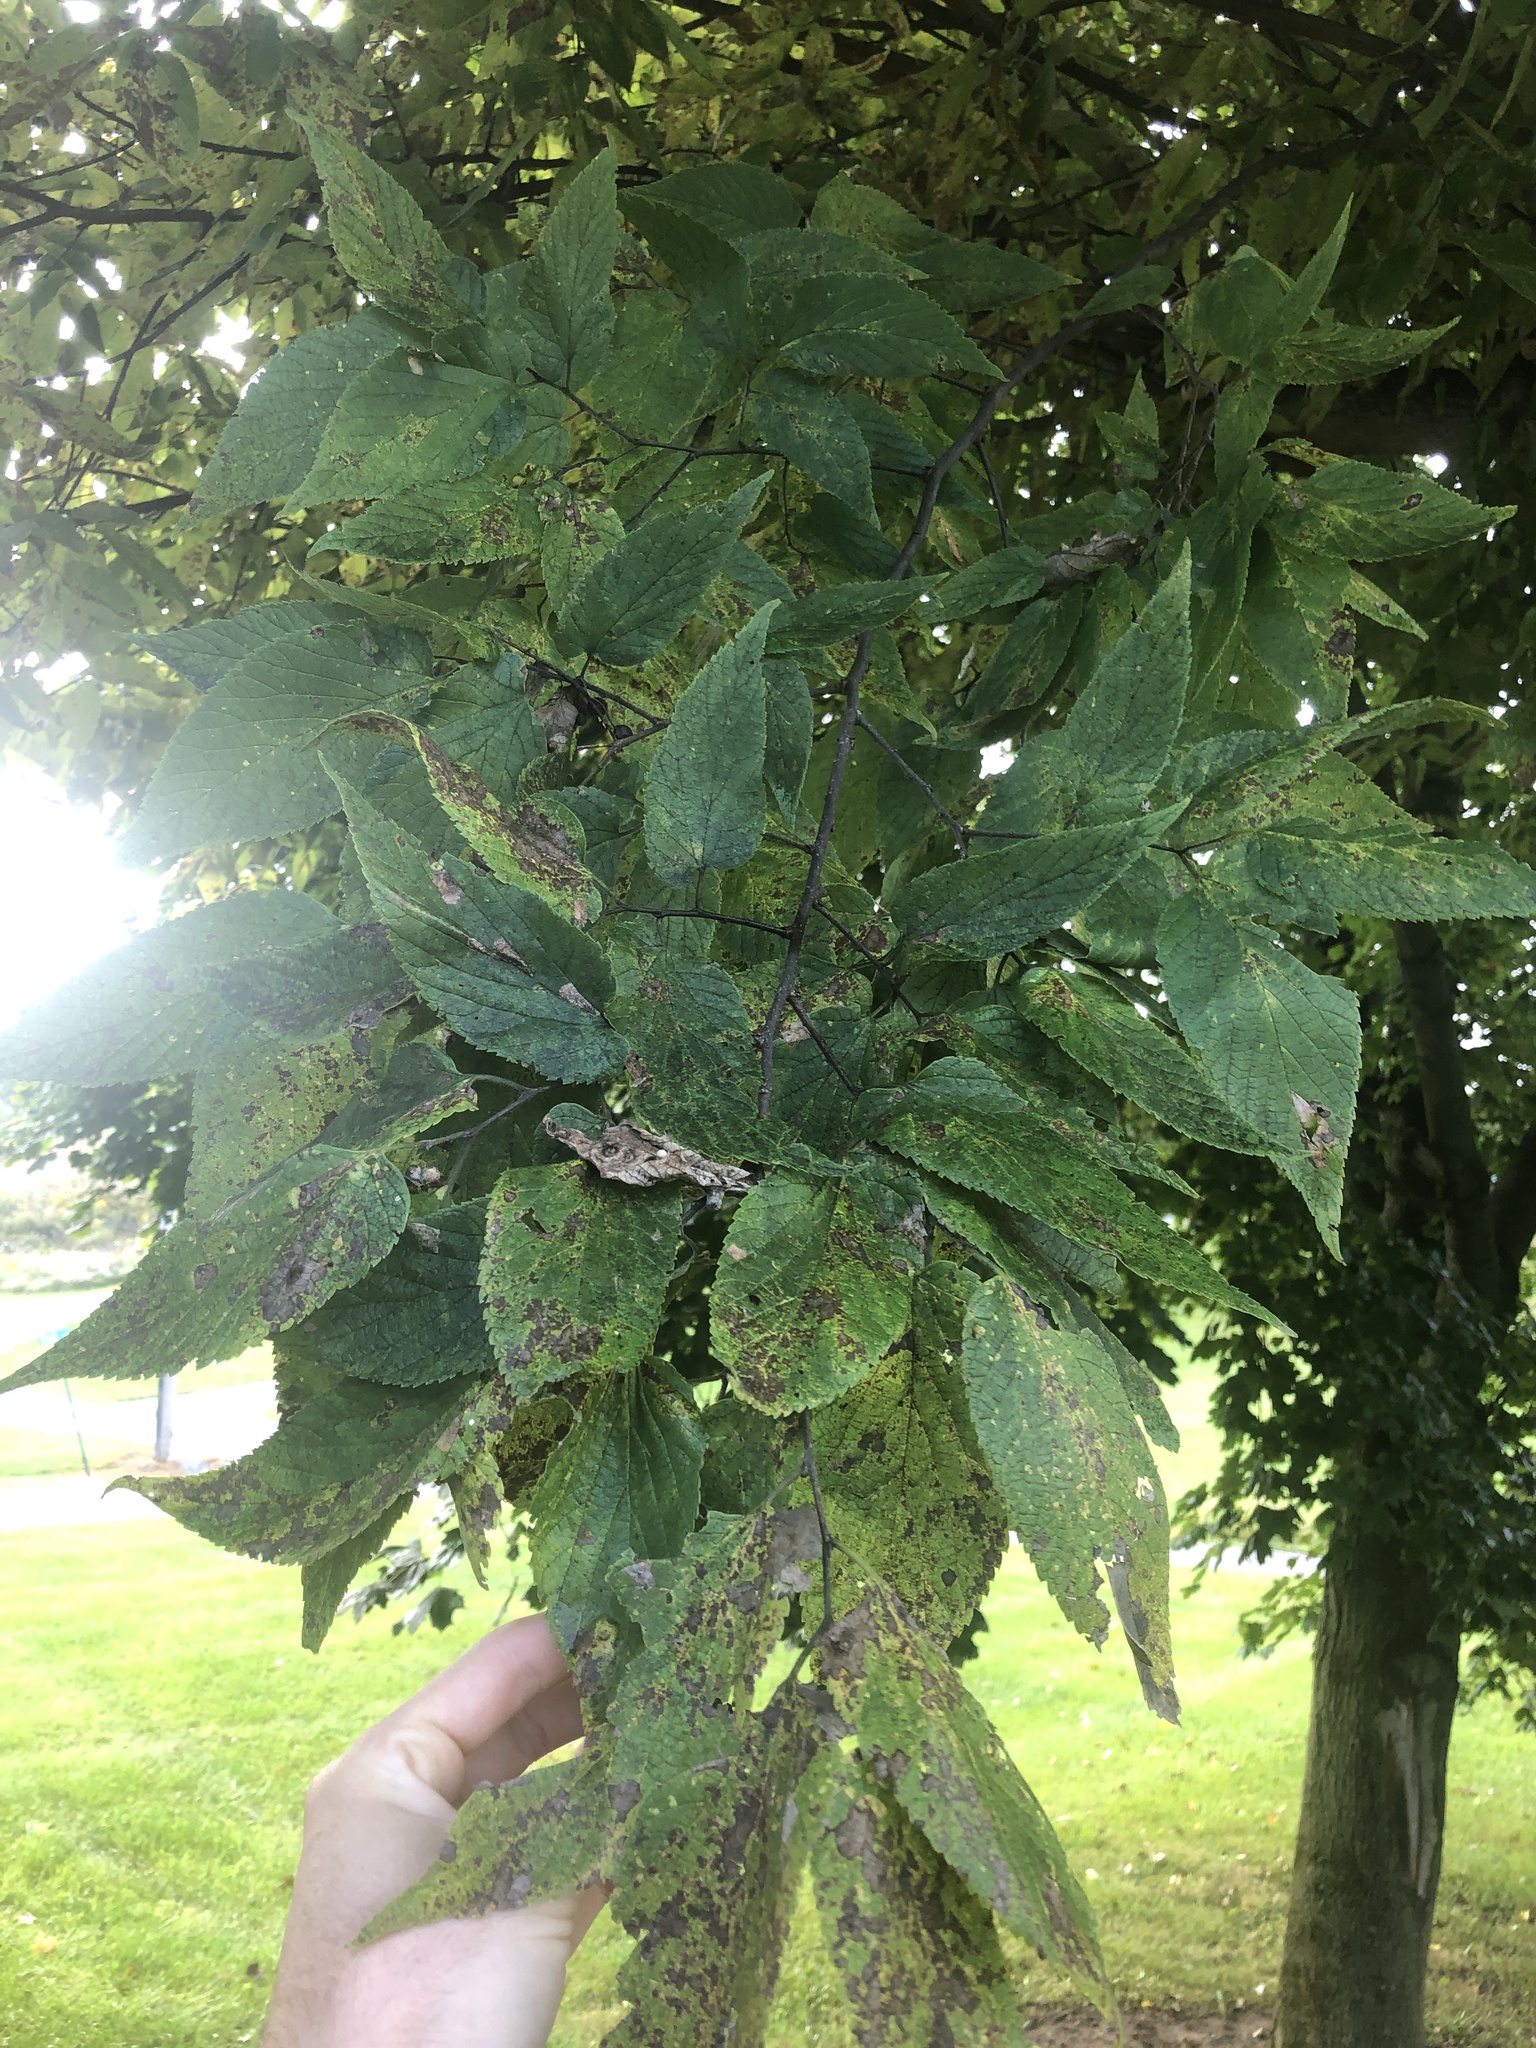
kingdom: Plantae
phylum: Tracheophyta
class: Magnoliopsida
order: Rosales
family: Cannabaceae
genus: Celtis
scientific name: Celtis occidentalis
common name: Common hackberry
